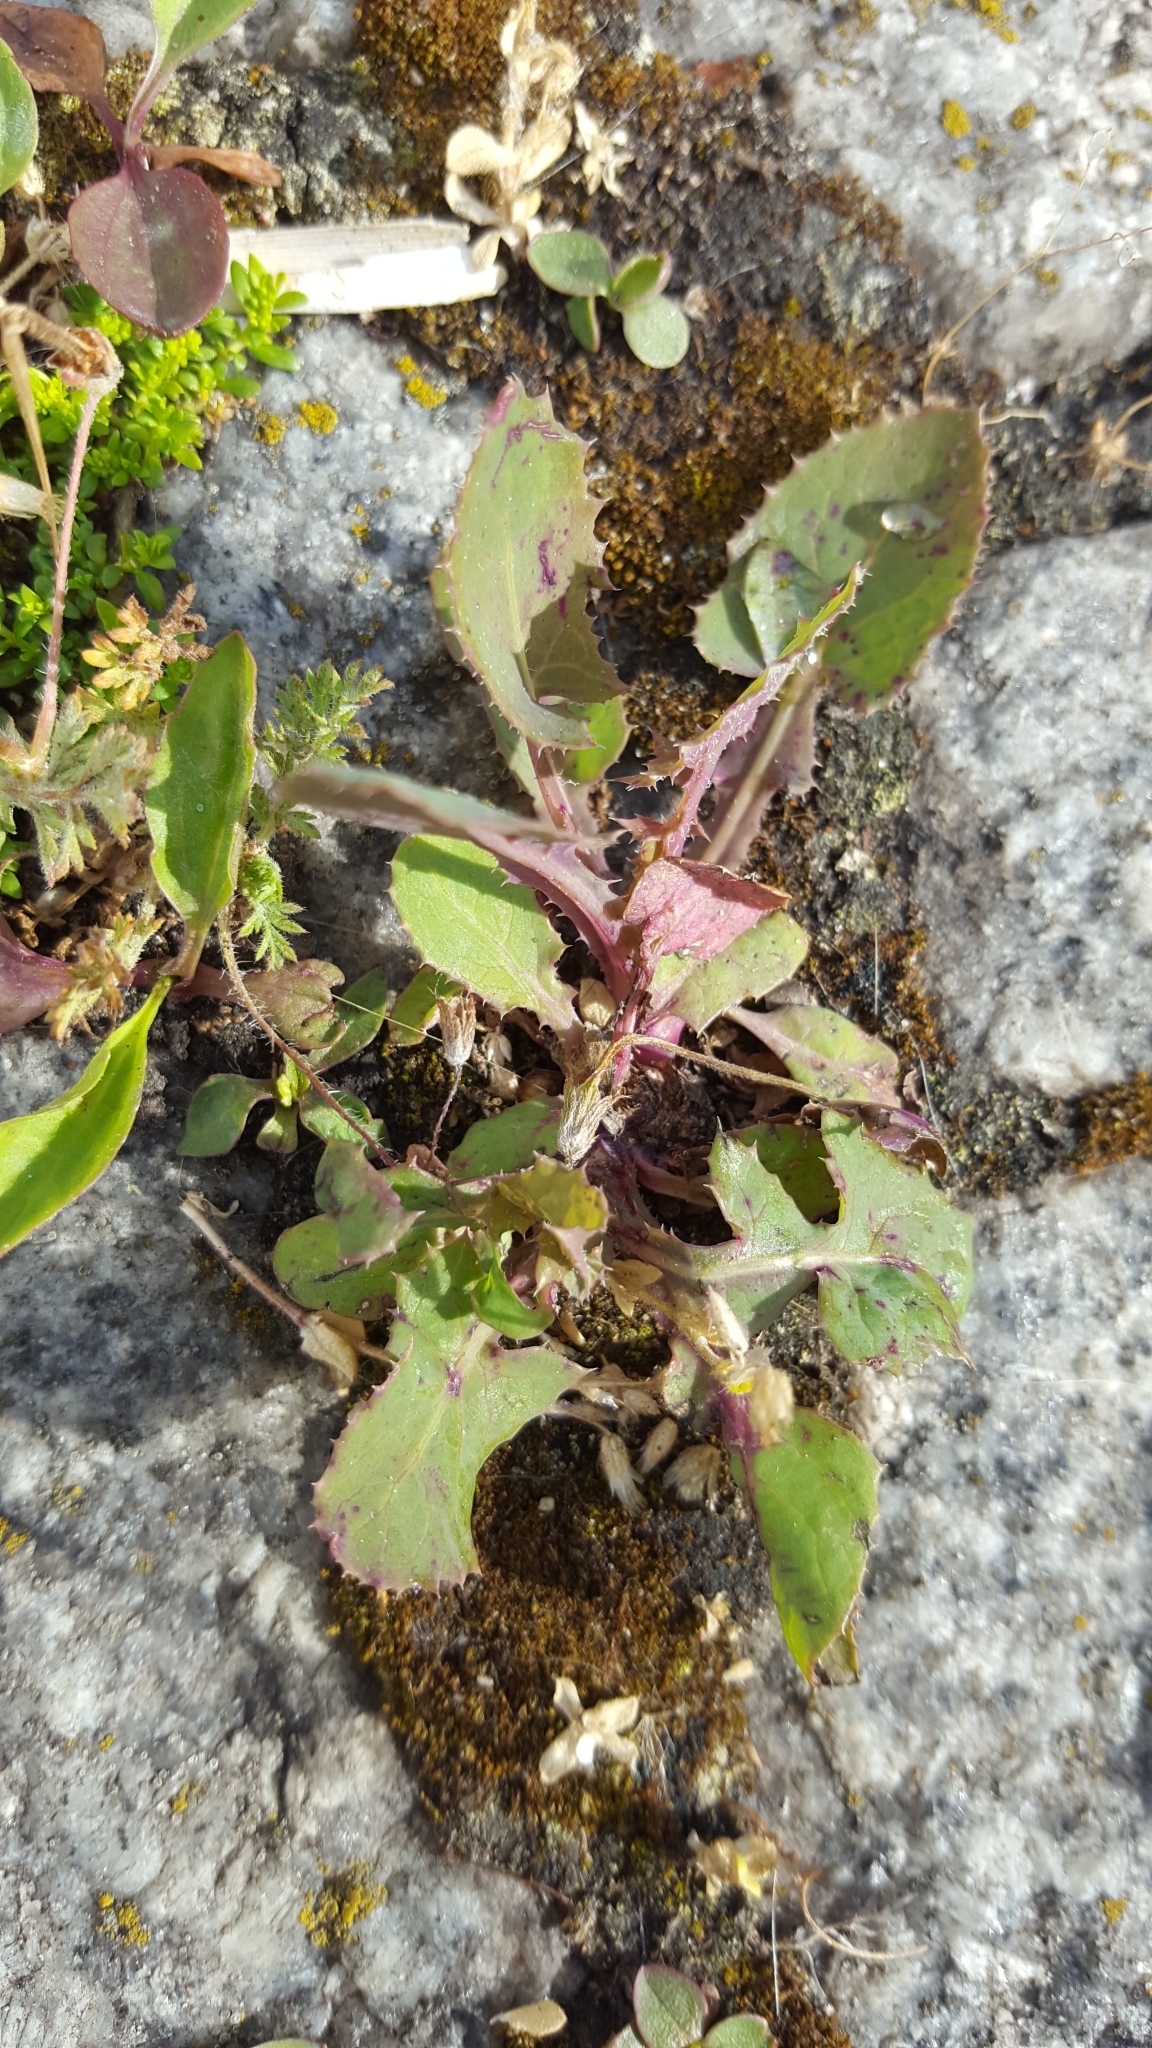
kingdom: Plantae
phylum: Tracheophyta
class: Magnoliopsida
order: Asterales
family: Asteraceae
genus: Sonchus
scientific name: Sonchus oleraceus
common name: Common sowthistle
